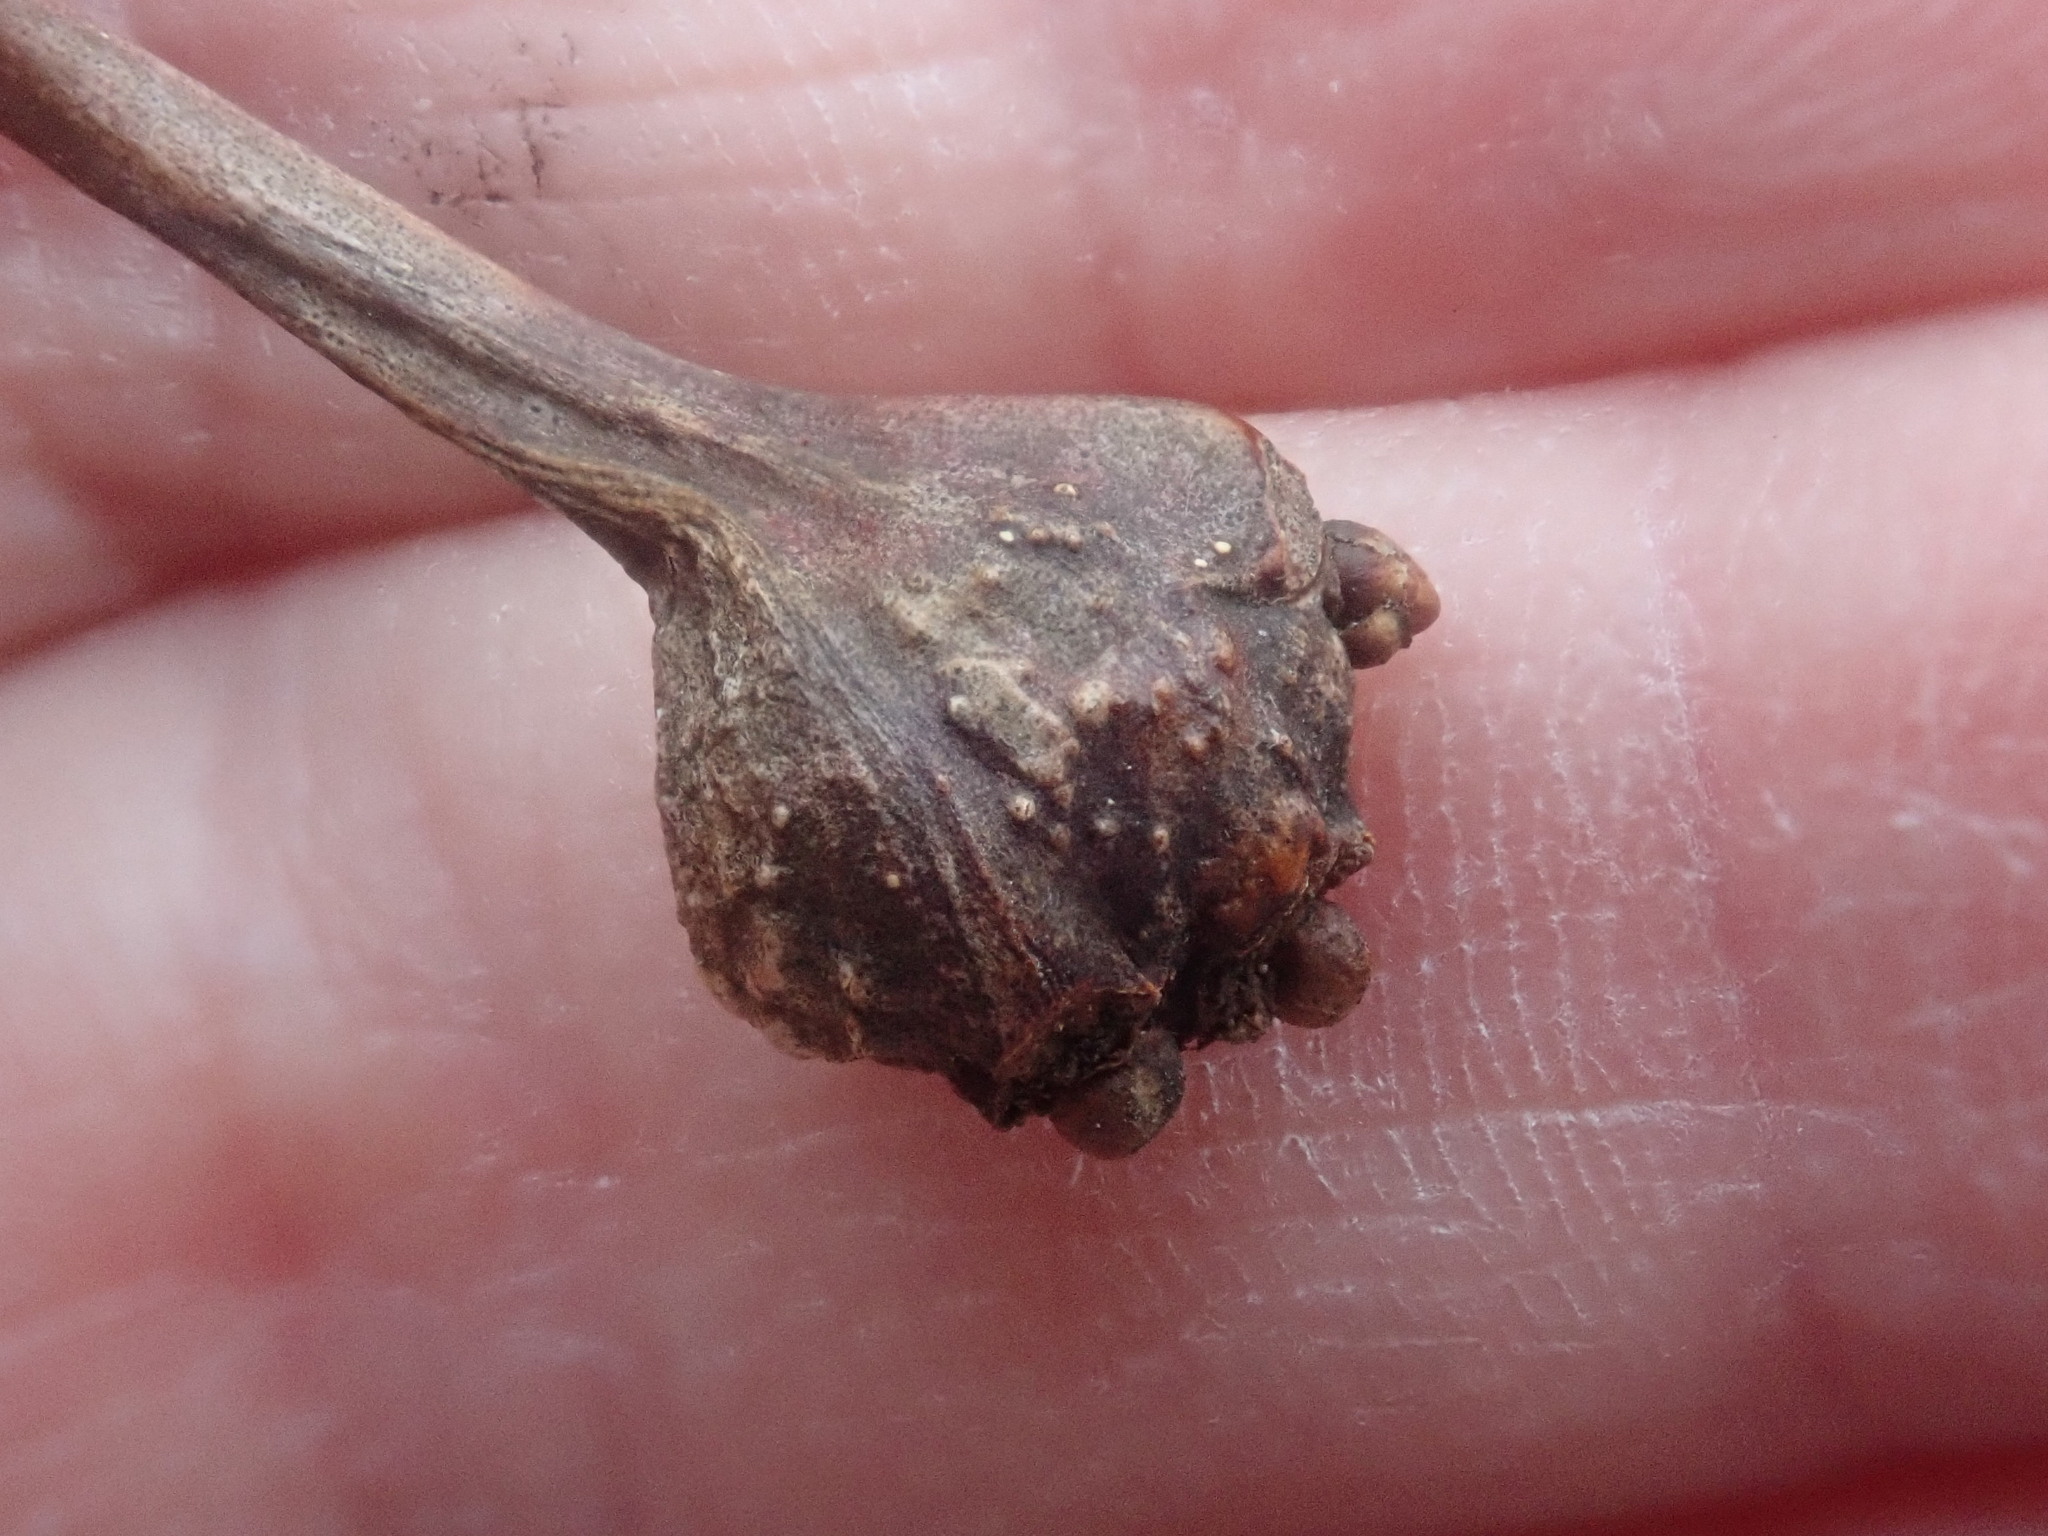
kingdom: Animalia
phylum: Arthropoda
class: Insecta
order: Hymenoptera
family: Cynipidae
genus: Callirhytis
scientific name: Callirhytis clavula
